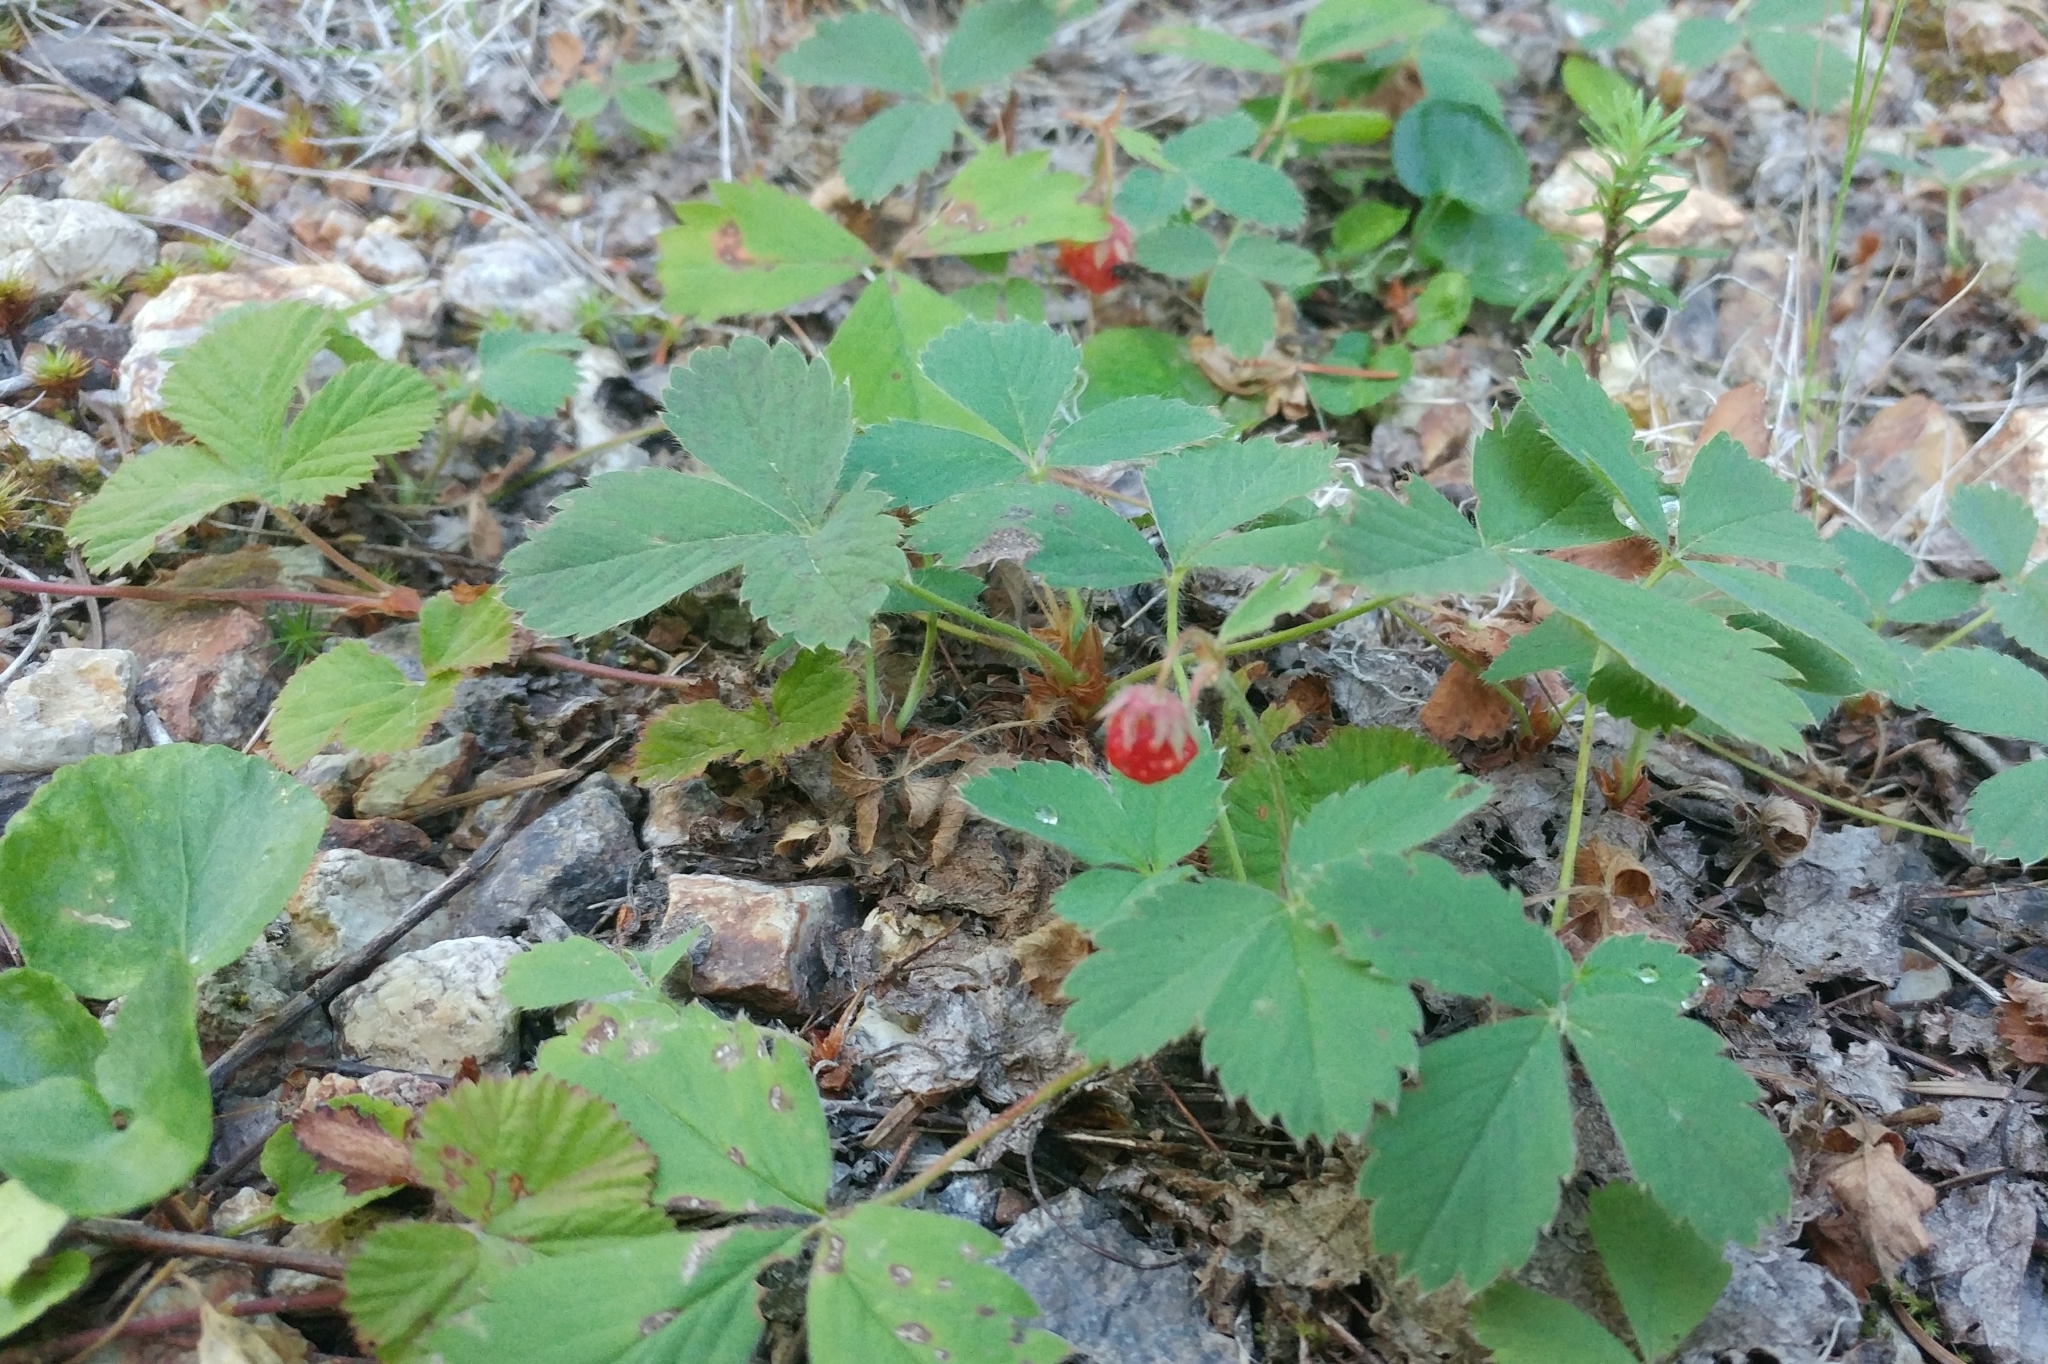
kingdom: Plantae
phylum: Tracheophyta
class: Magnoliopsida
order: Rosales
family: Rosaceae
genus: Fragaria
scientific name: Fragaria virginiana
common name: Thickleaved wild strawberry
